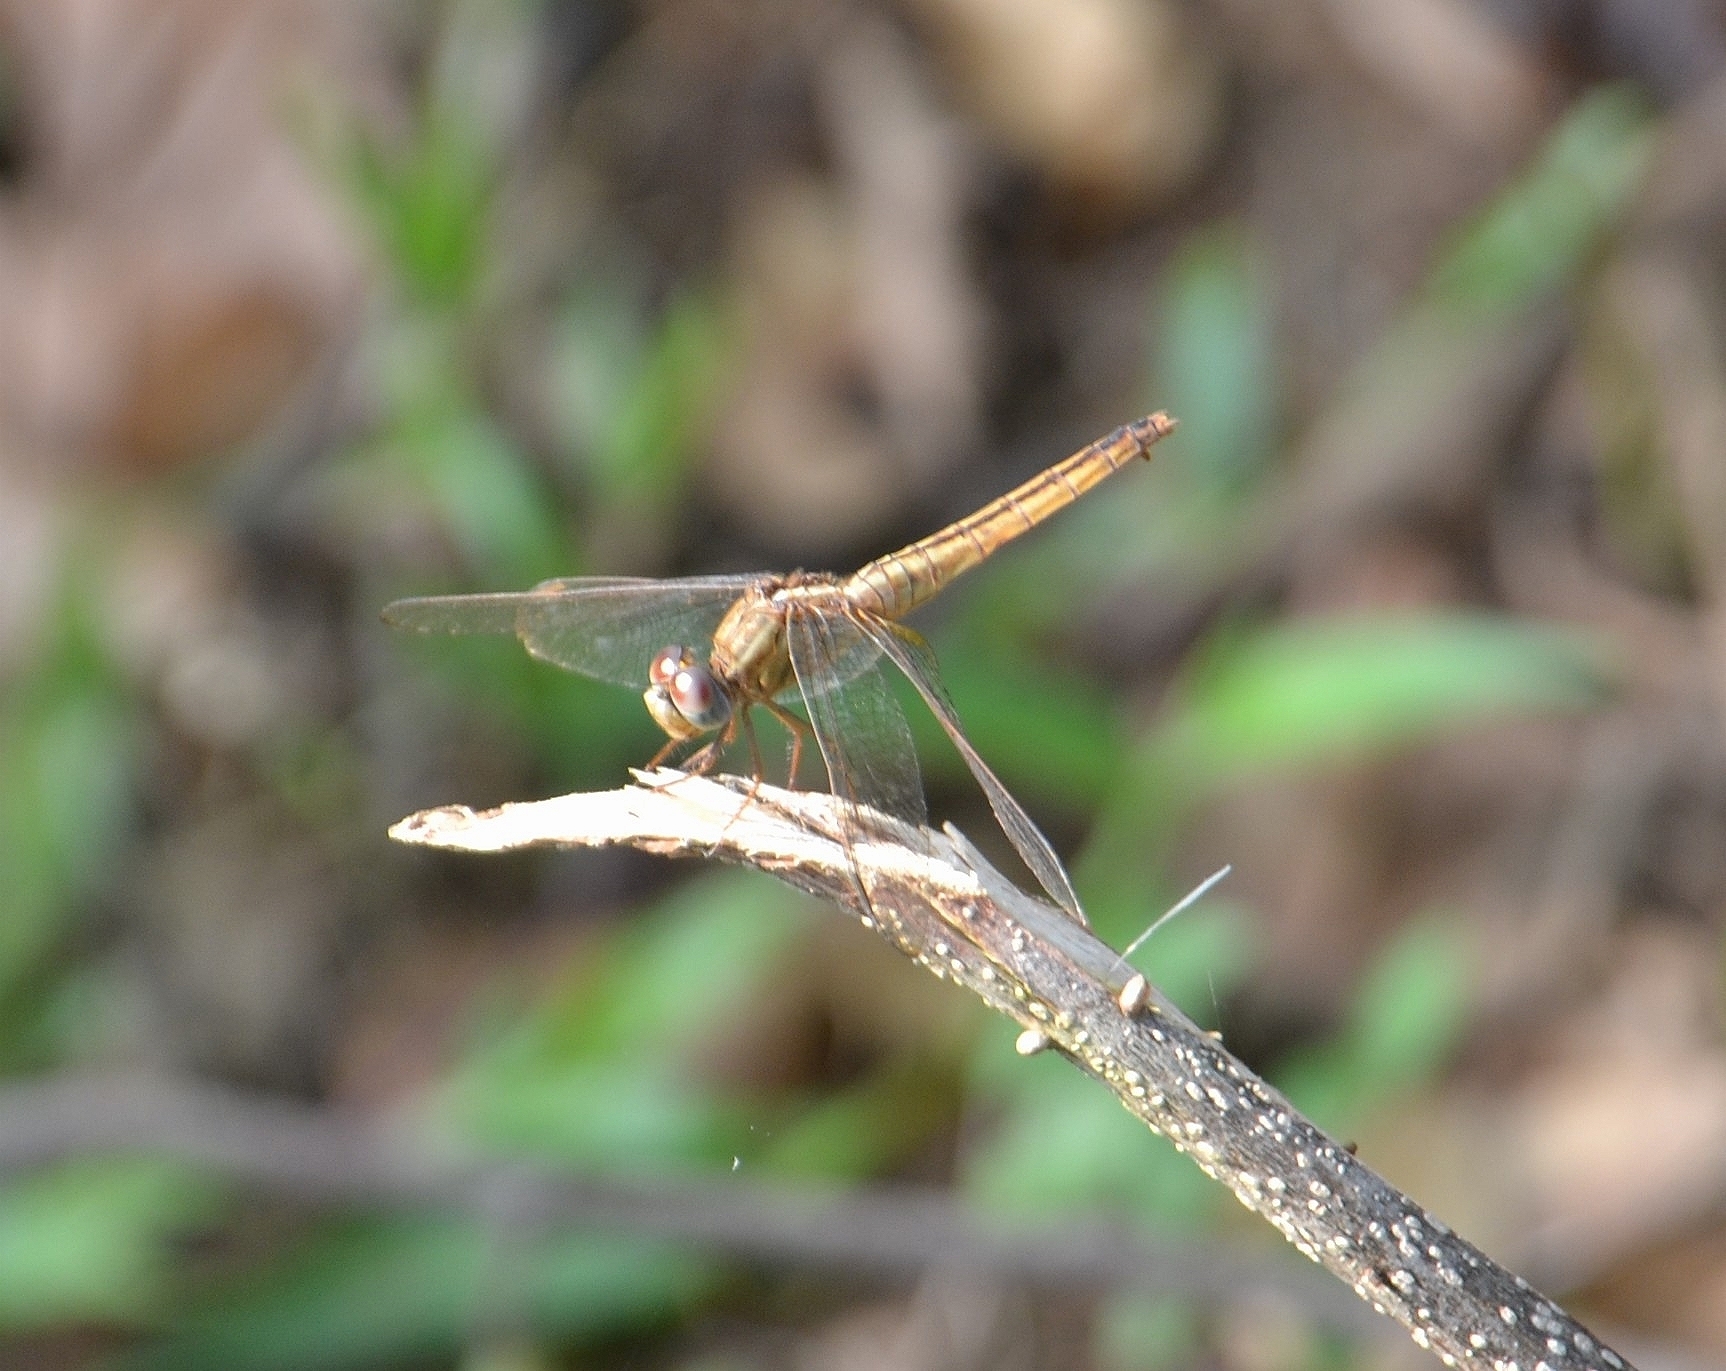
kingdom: Animalia
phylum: Arthropoda
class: Insecta
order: Odonata
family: Libellulidae
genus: Crocothemis
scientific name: Crocothemis servilia
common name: Scarlet skimmer
